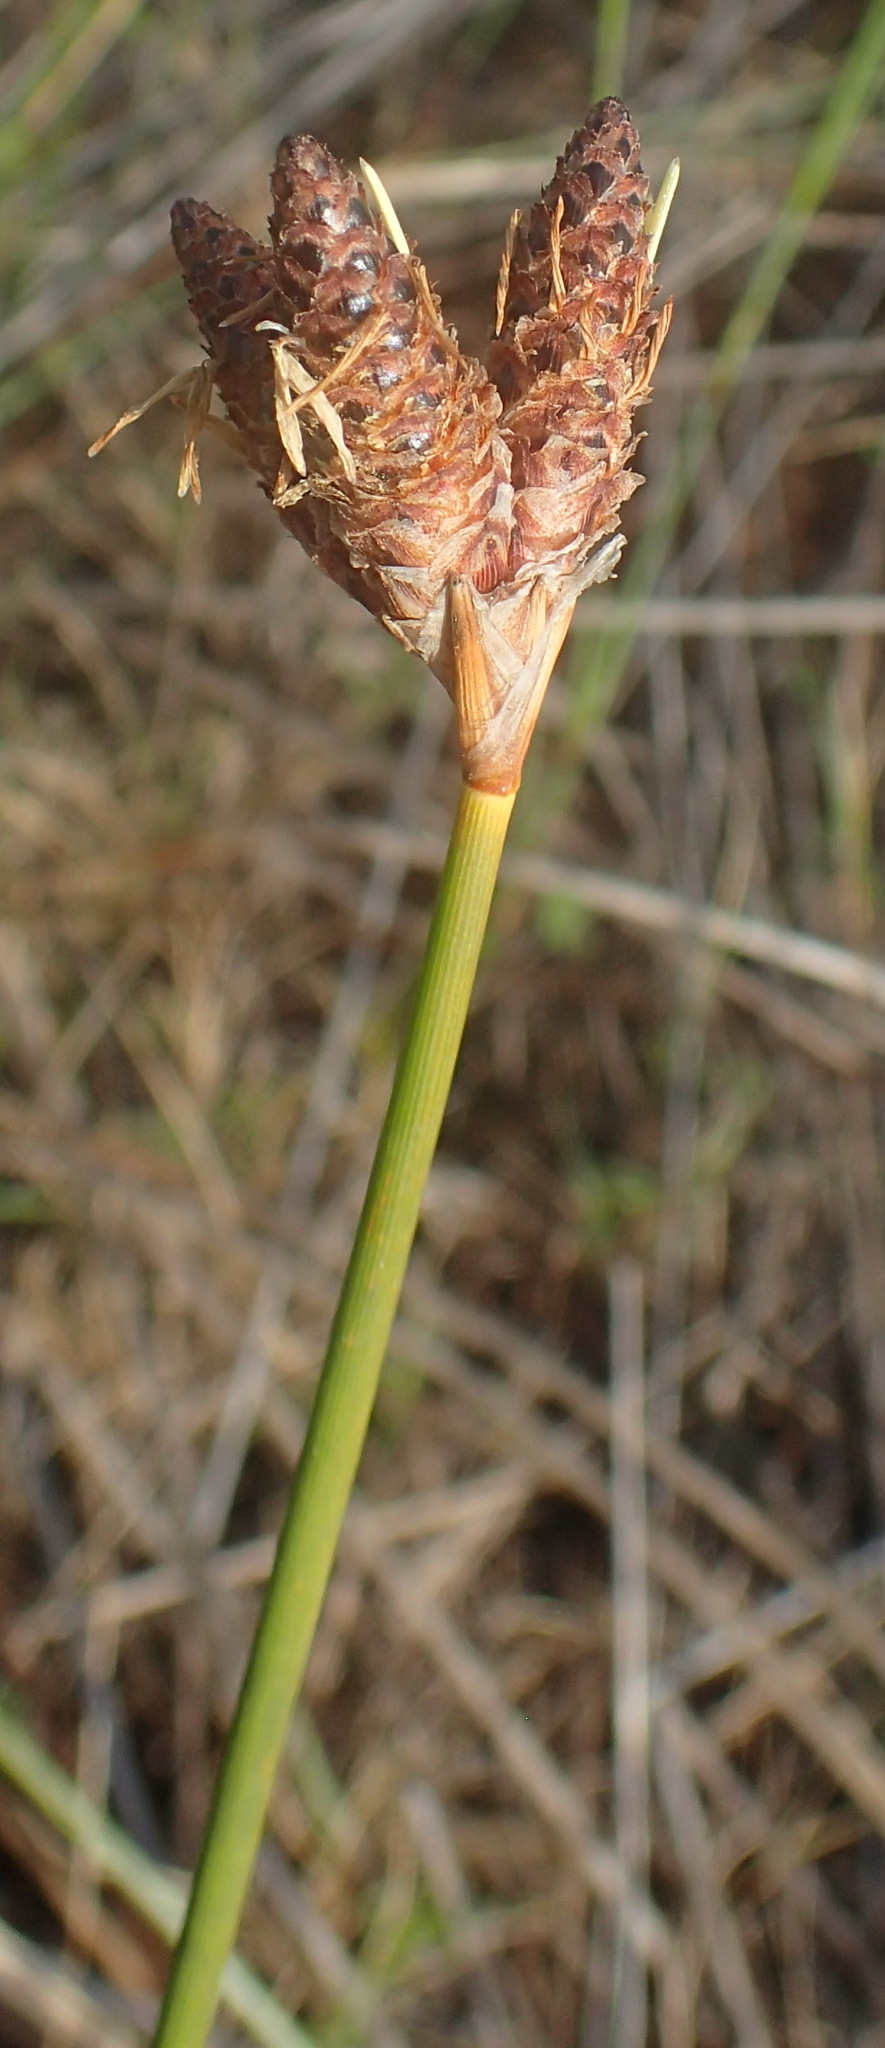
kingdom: Plantae
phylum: Tracheophyta
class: Liliopsida
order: Poales
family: Cyperaceae
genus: Hellmuthia
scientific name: Hellmuthia membranacea
